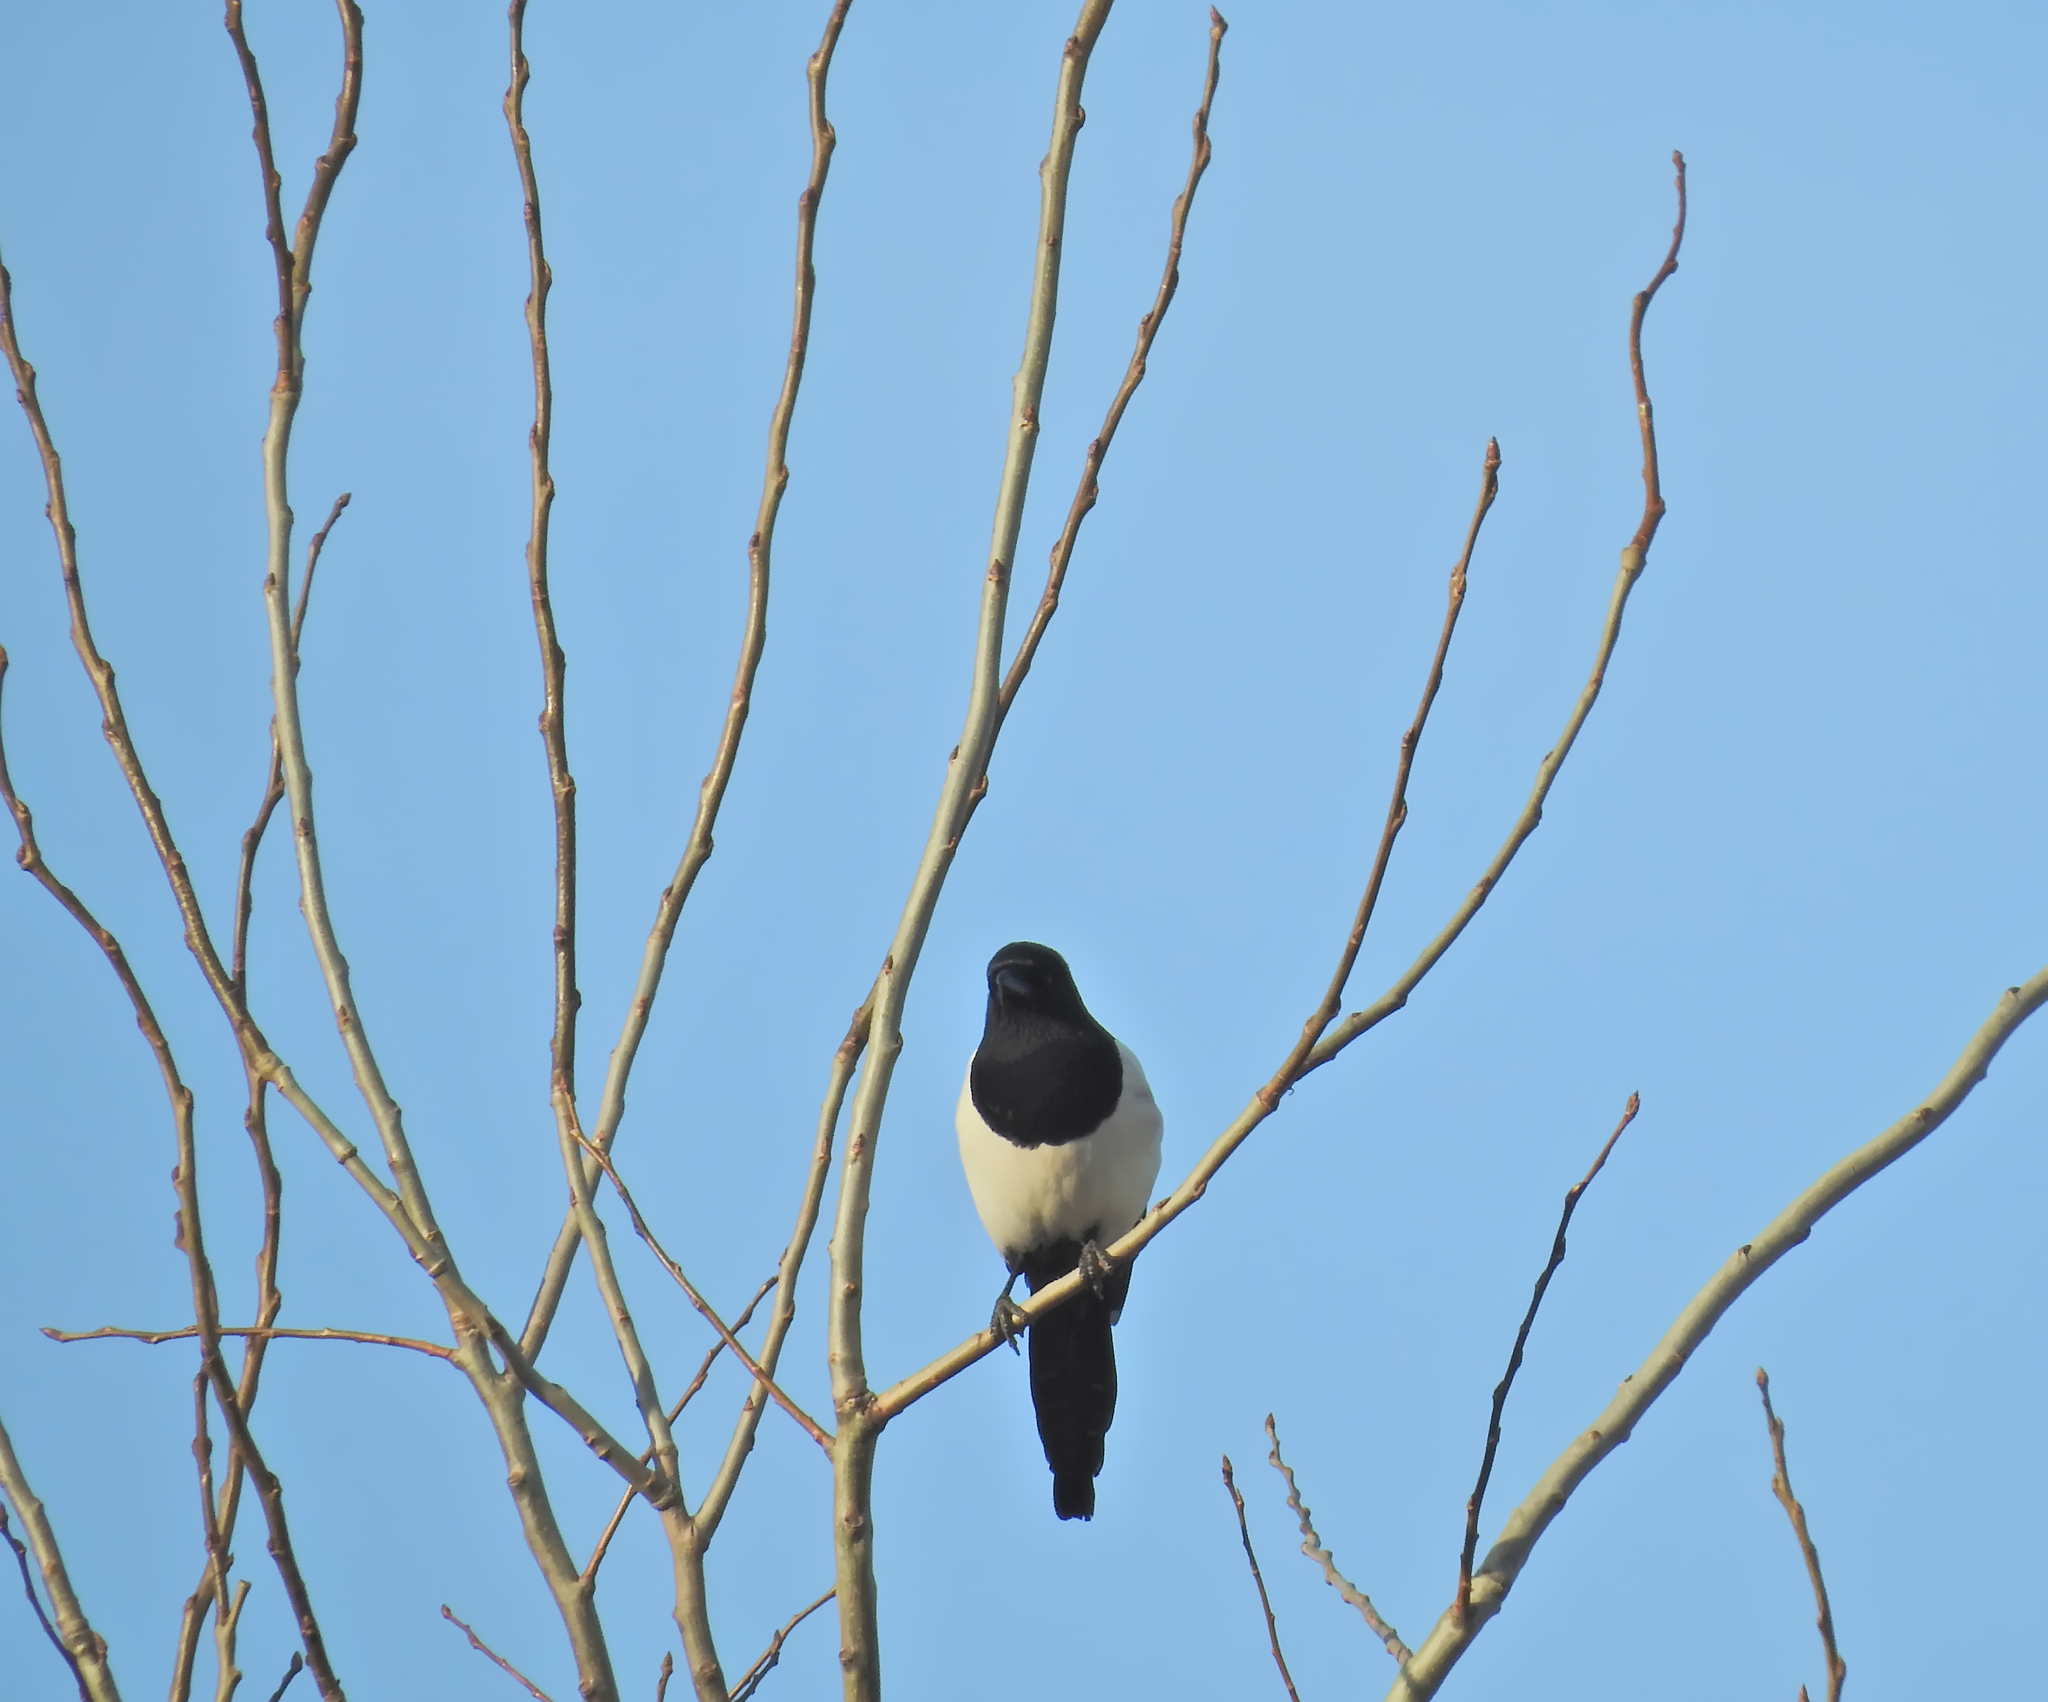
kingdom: Animalia
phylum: Chordata
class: Aves
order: Passeriformes
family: Corvidae
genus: Pica
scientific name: Pica pica
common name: Eurasian magpie
